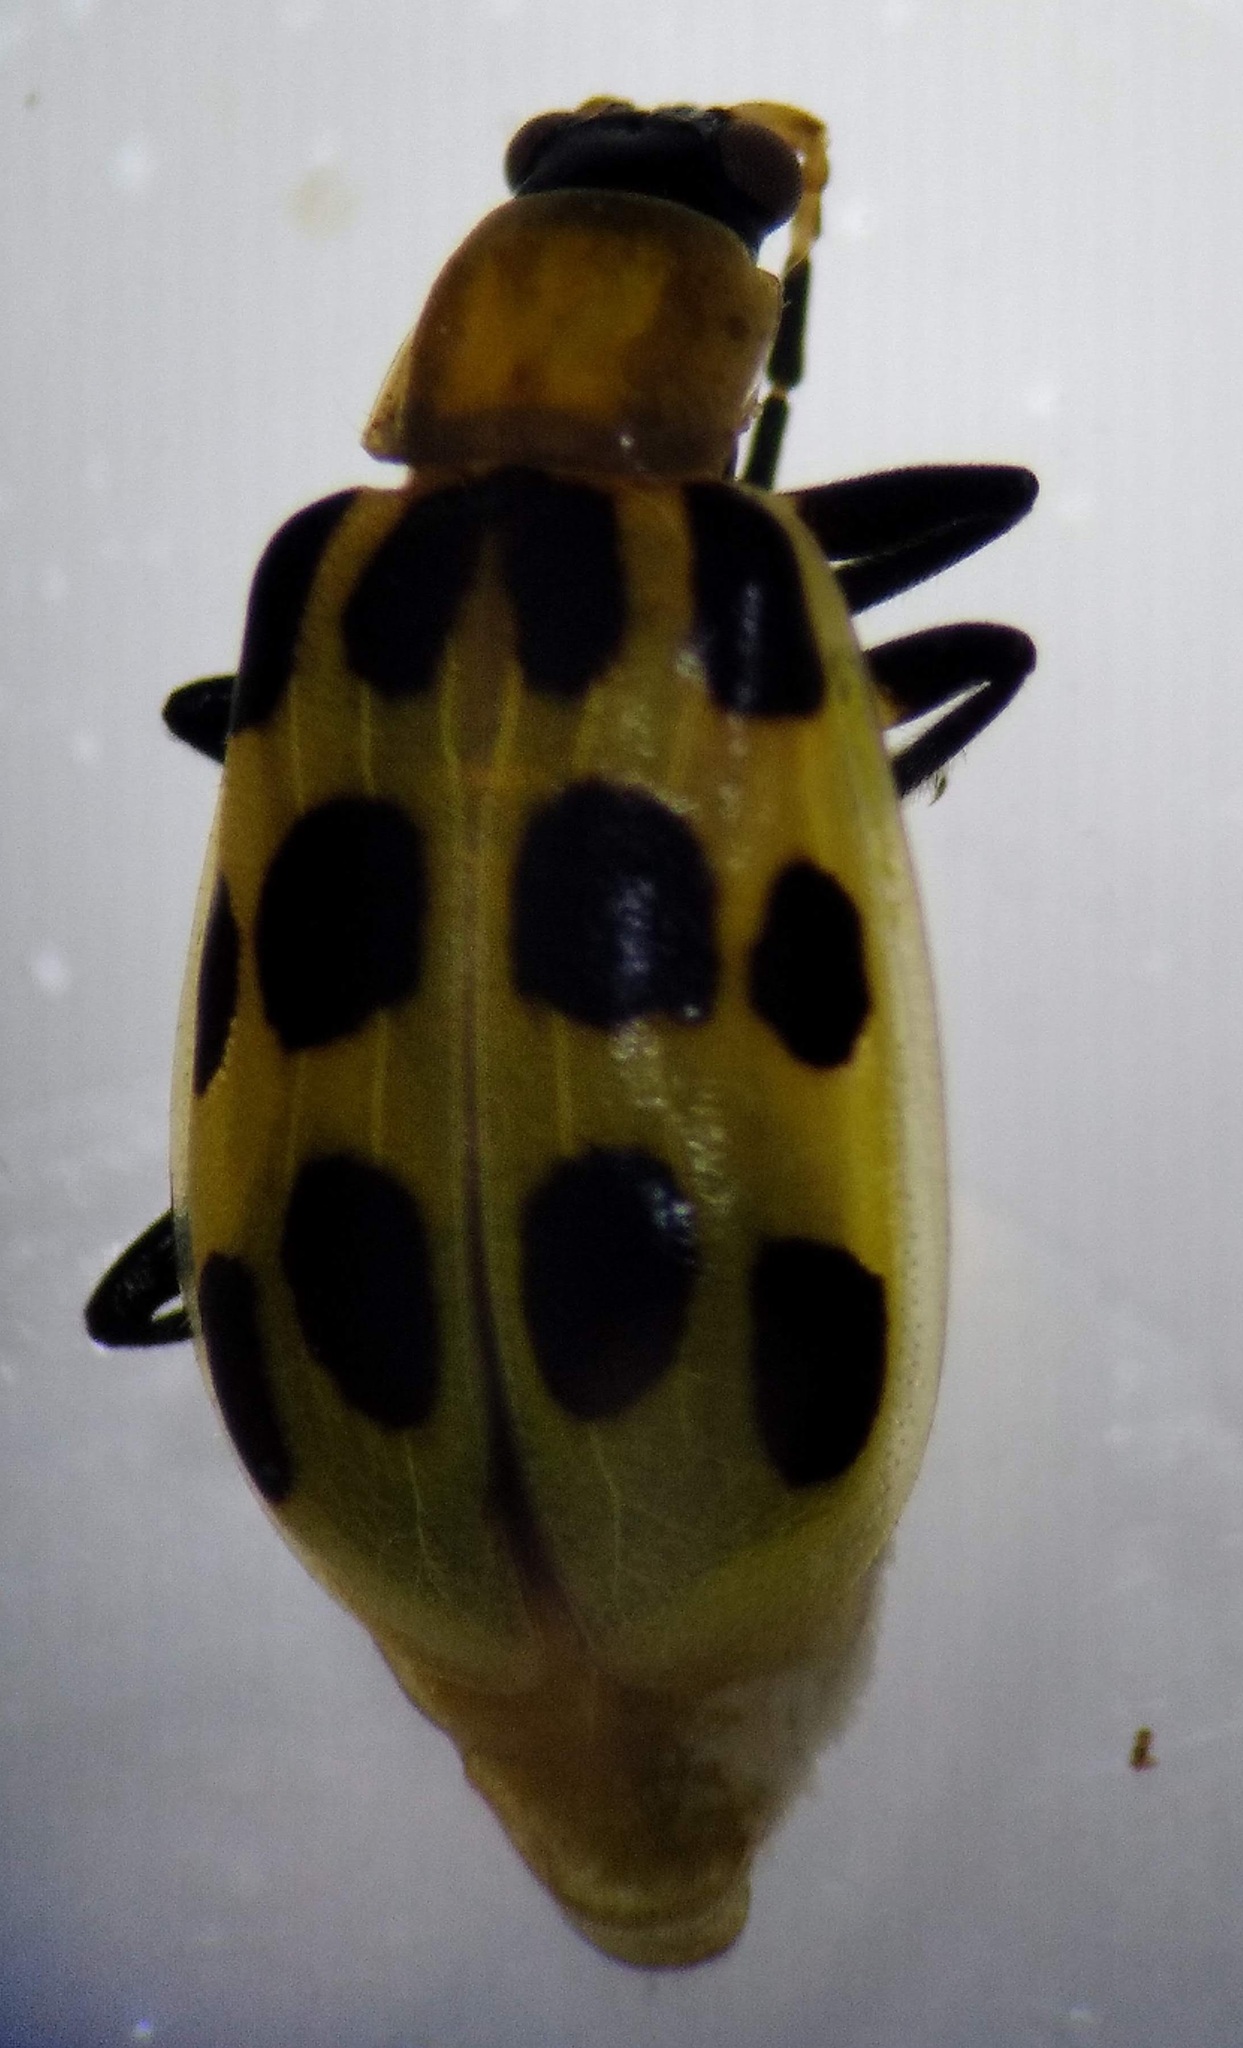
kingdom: Animalia
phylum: Arthropoda
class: Insecta
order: Coleoptera
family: Chrysomelidae
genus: Diabrotica
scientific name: Diabrotica undecimpunctata
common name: Spotted cucumber beetle
